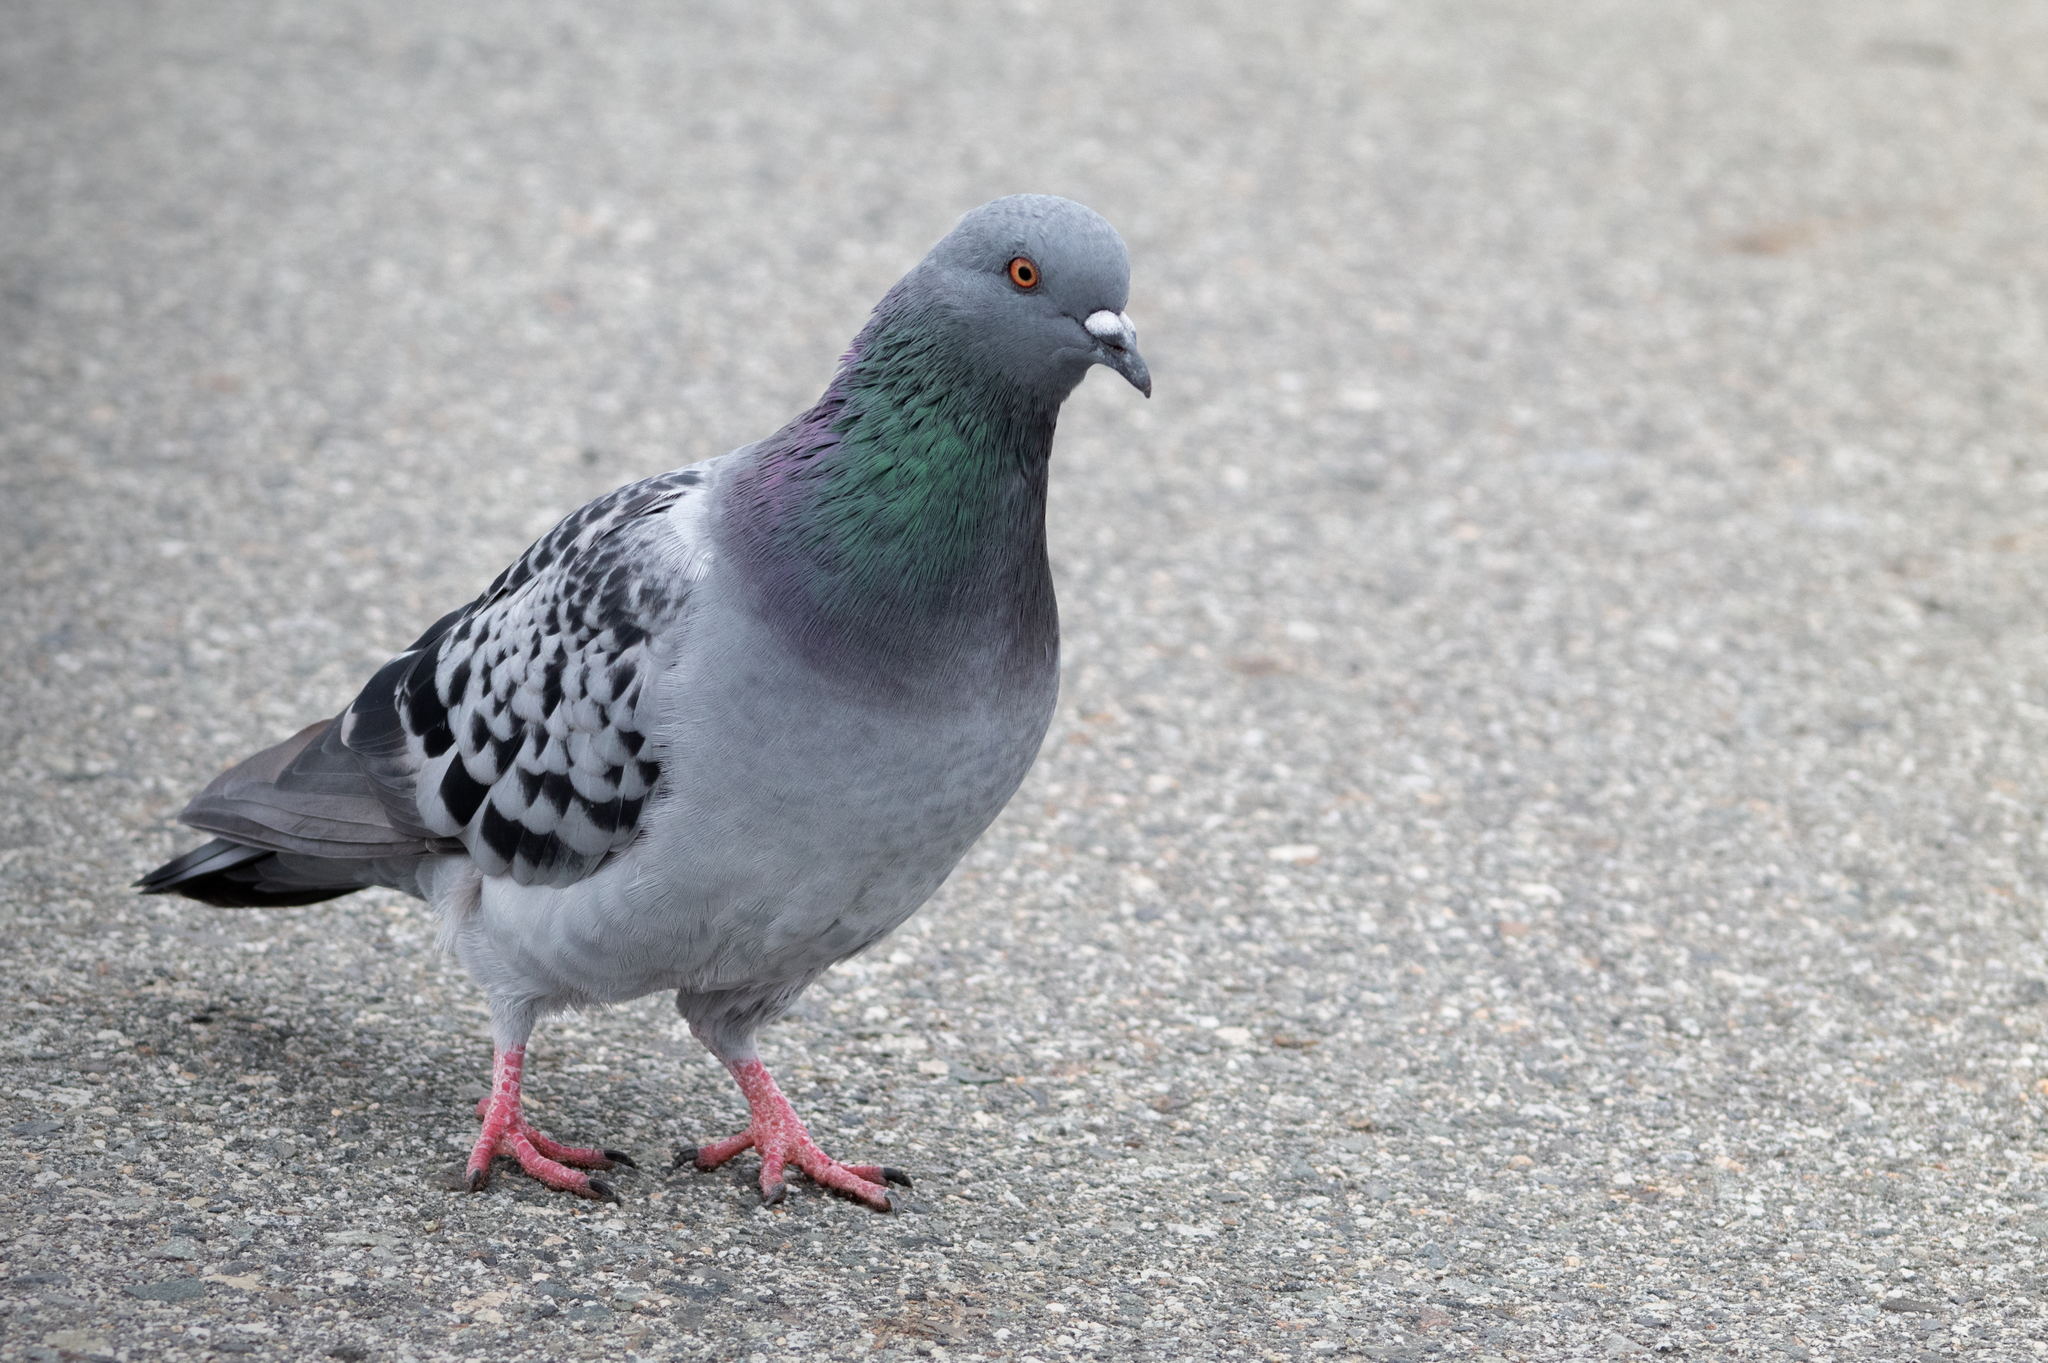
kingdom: Animalia
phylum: Chordata
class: Aves
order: Columbiformes
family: Columbidae
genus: Columba
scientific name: Columba livia
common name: Rock pigeon
